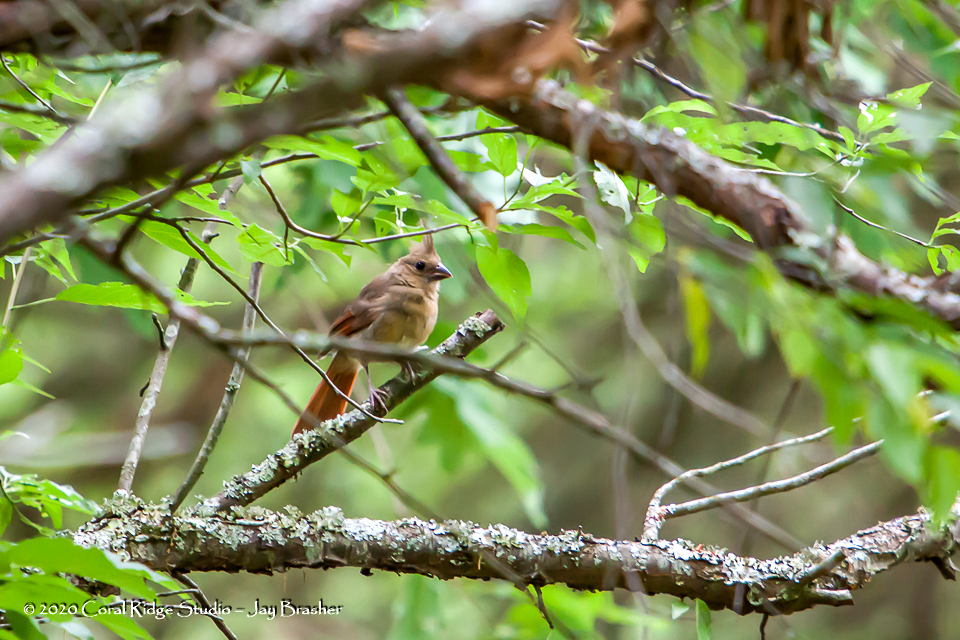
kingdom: Animalia
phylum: Chordata
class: Aves
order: Passeriformes
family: Cardinalidae
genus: Cardinalis
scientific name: Cardinalis cardinalis
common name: Northern cardinal
